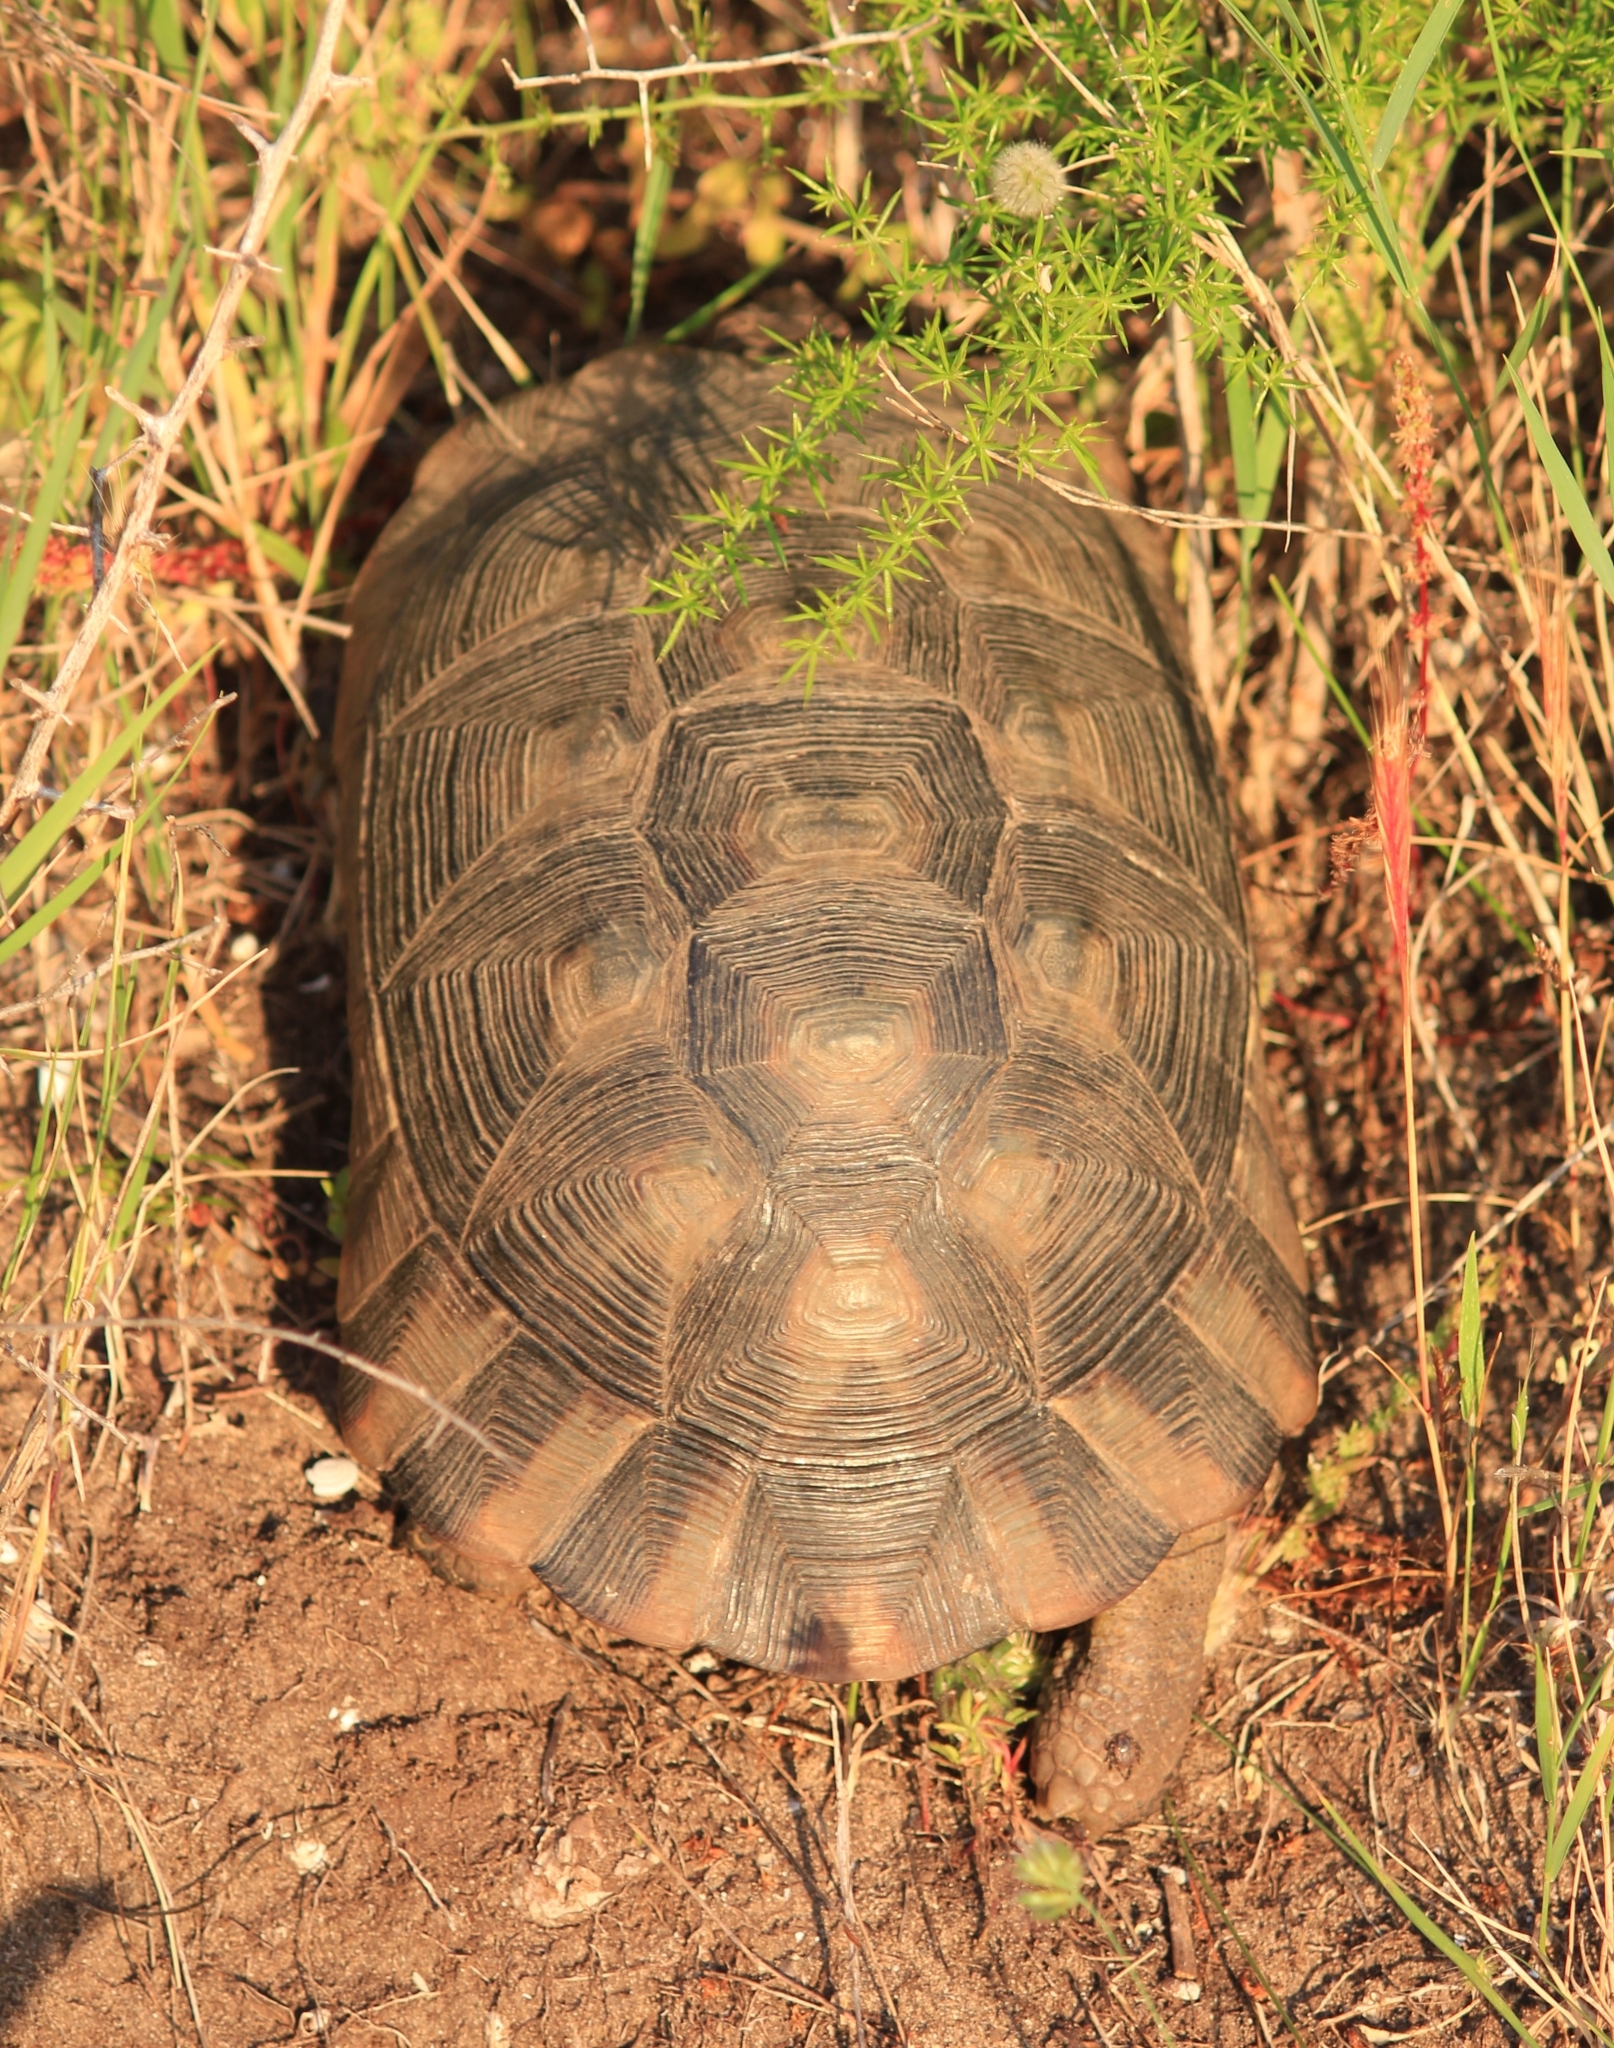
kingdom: Animalia
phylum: Chordata
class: Testudines
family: Testudinidae
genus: Testudo
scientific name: Testudo marginata
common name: Marginated tortoise
